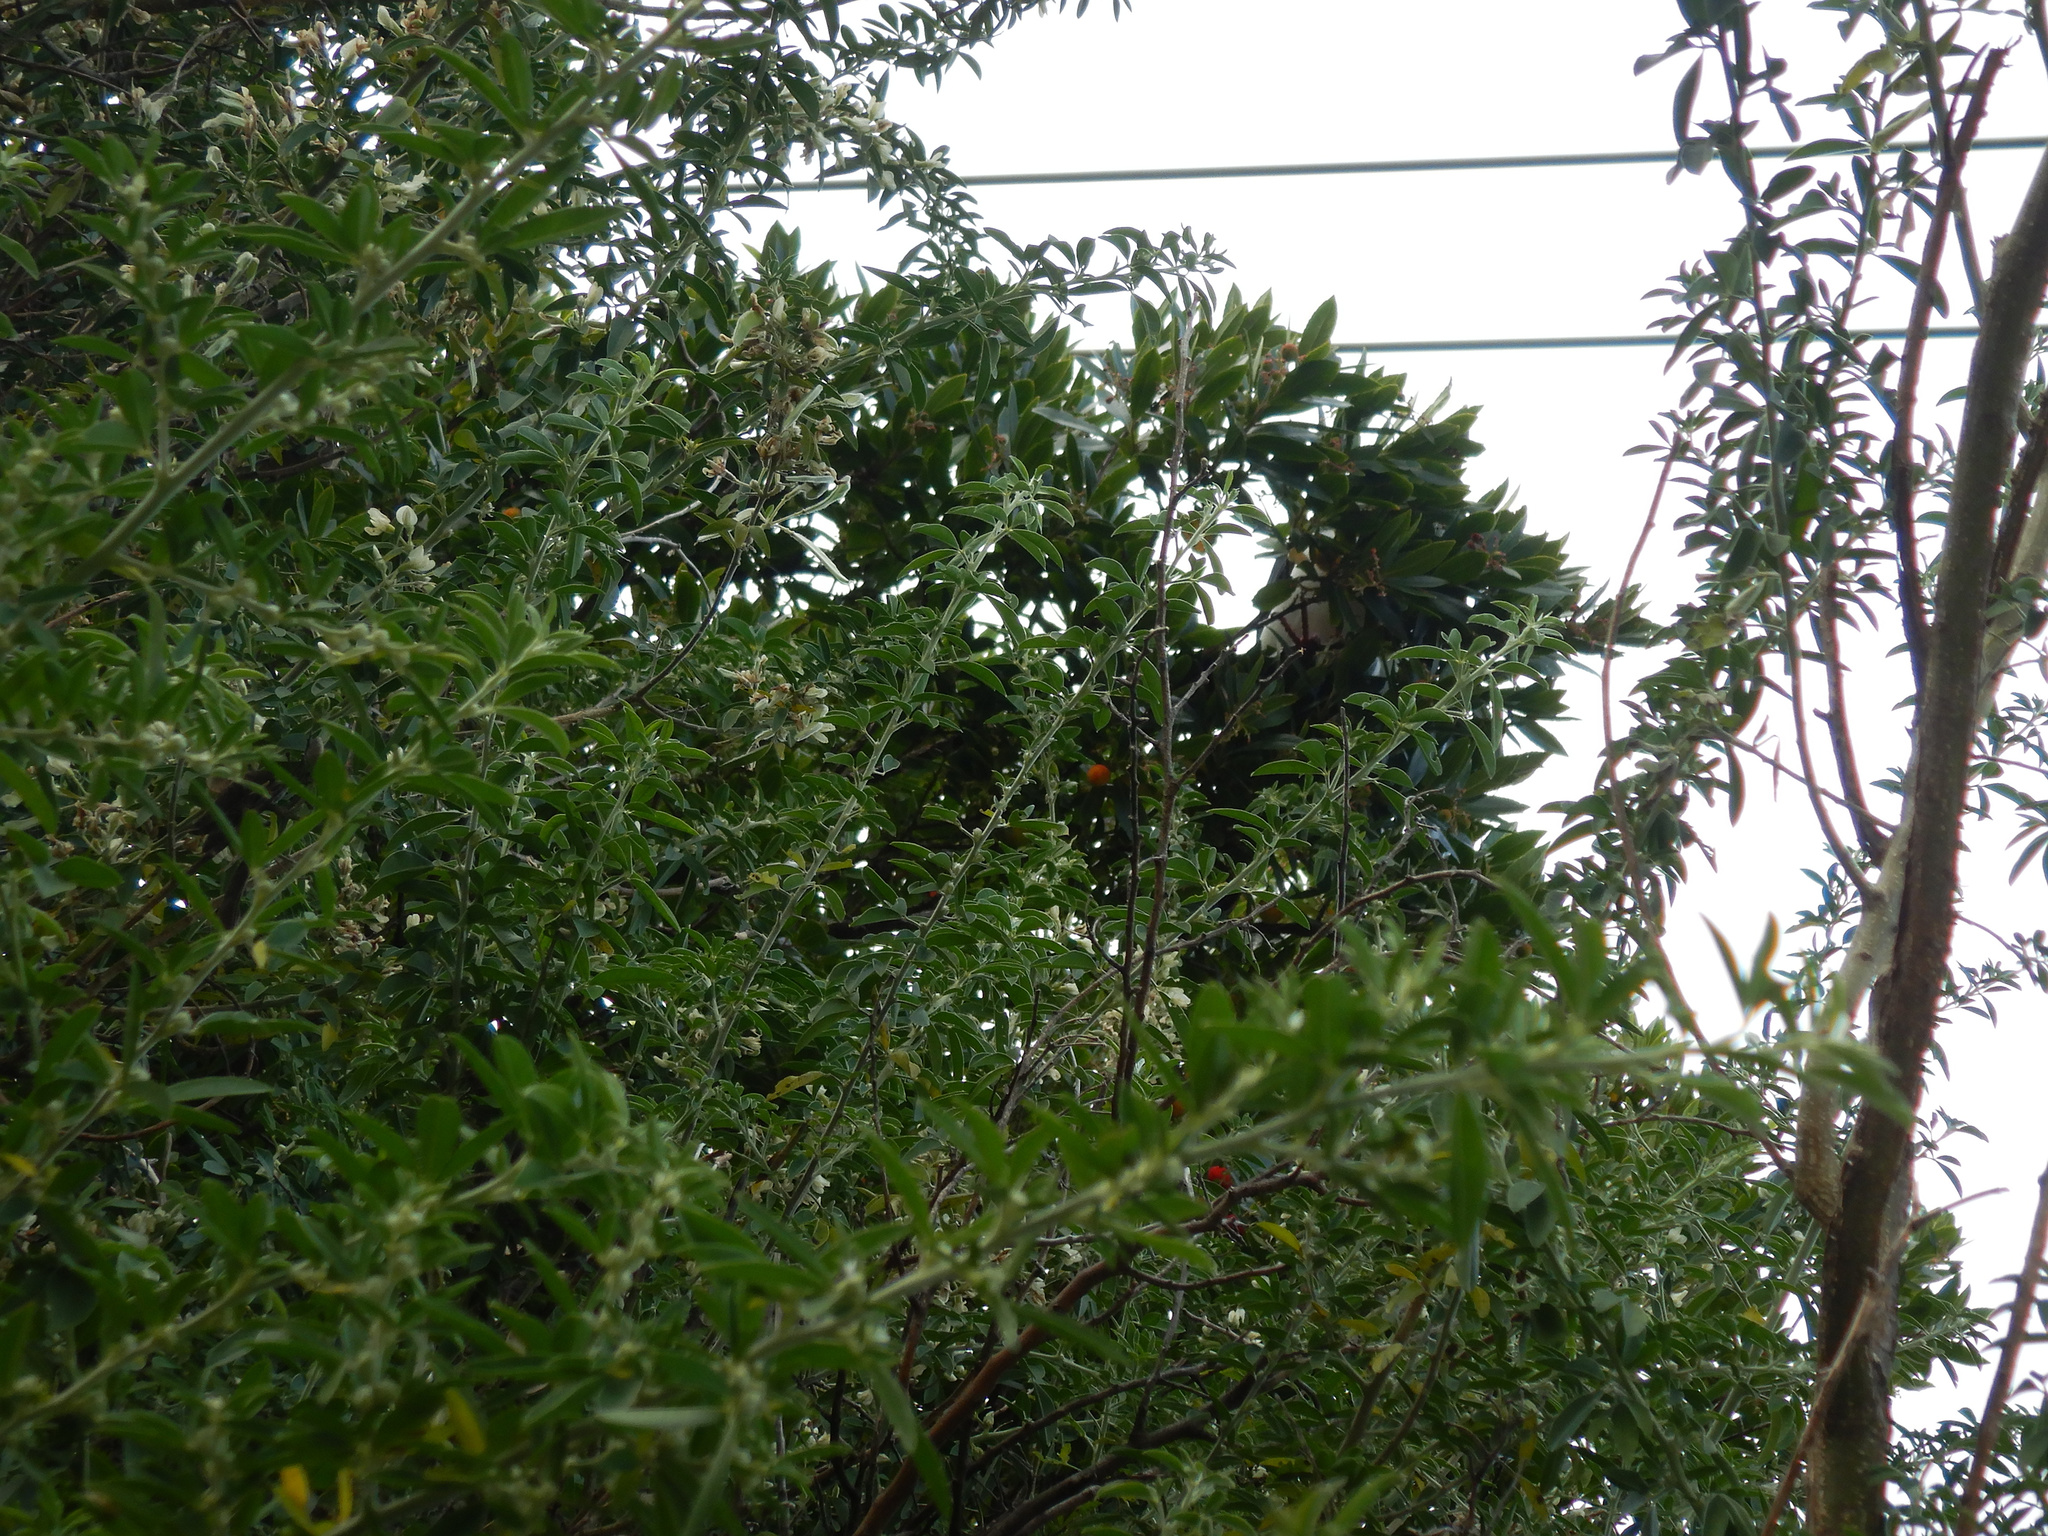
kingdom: Plantae
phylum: Tracheophyta
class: Magnoliopsida
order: Ericales
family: Ericaceae
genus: Arbutus
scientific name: Arbutus unedo
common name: Strawberry-tree
